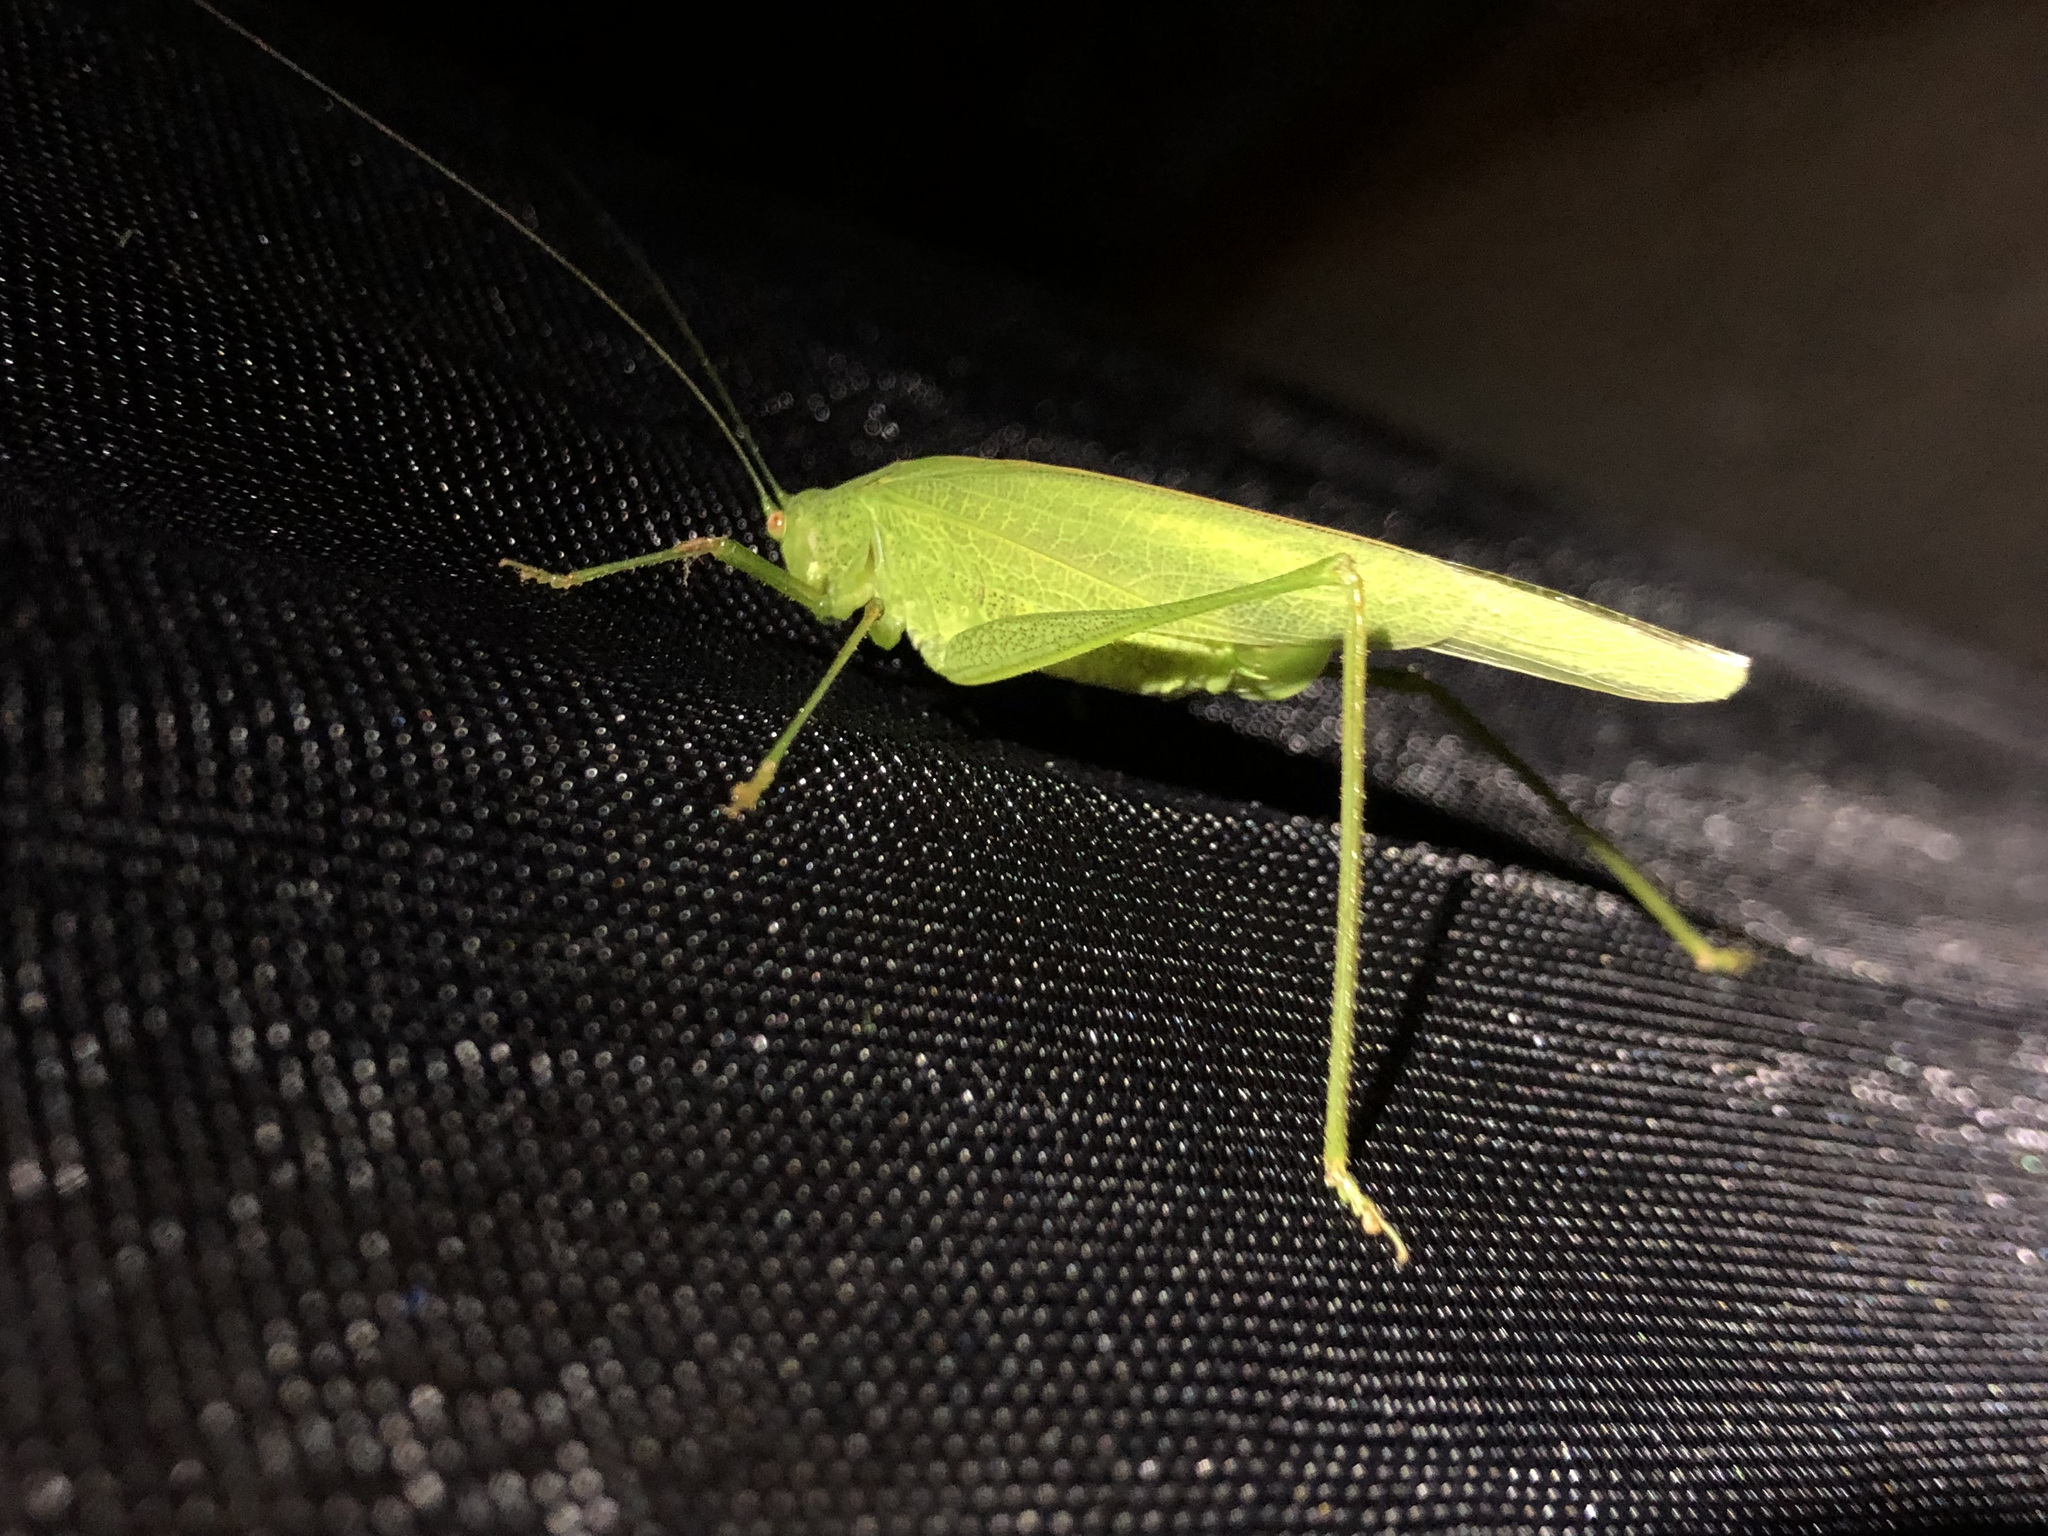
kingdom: Animalia
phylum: Arthropoda
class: Insecta
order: Orthoptera
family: Tettigoniidae
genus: Phaneroptera
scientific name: Phaneroptera nana
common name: Southern sickle bush-cricket
